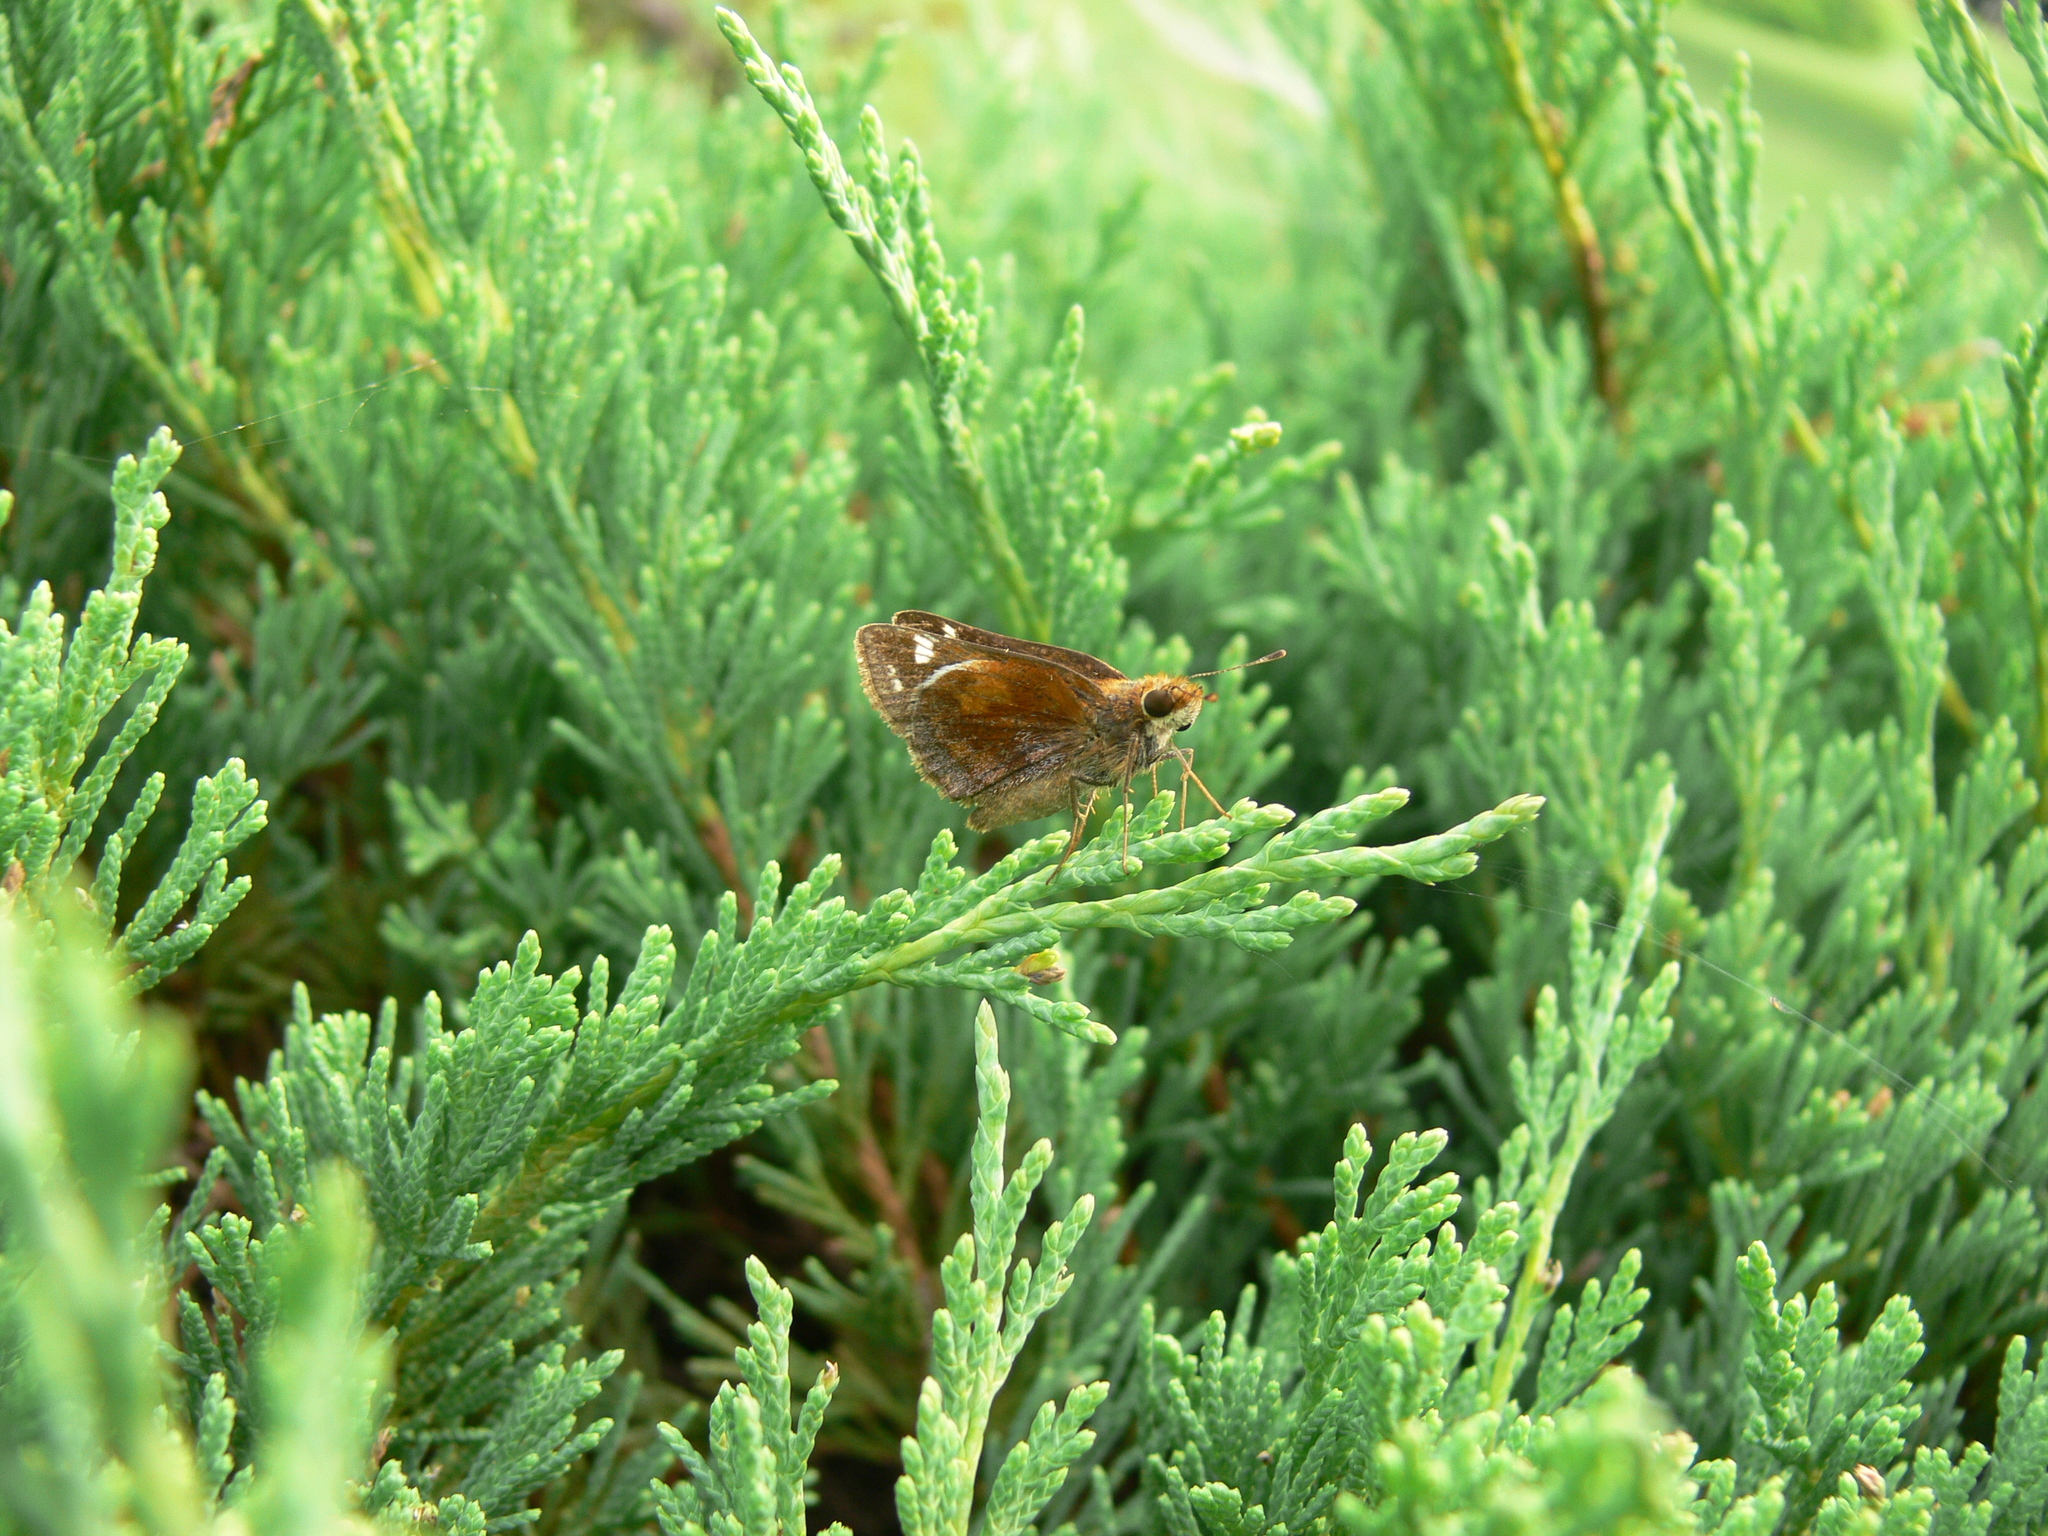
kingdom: Animalia
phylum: Arthropoda
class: Insecta
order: Lepidoptera
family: Hesperiidae
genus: Lon
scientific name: Lon zabulon
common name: Zabulon skipper
